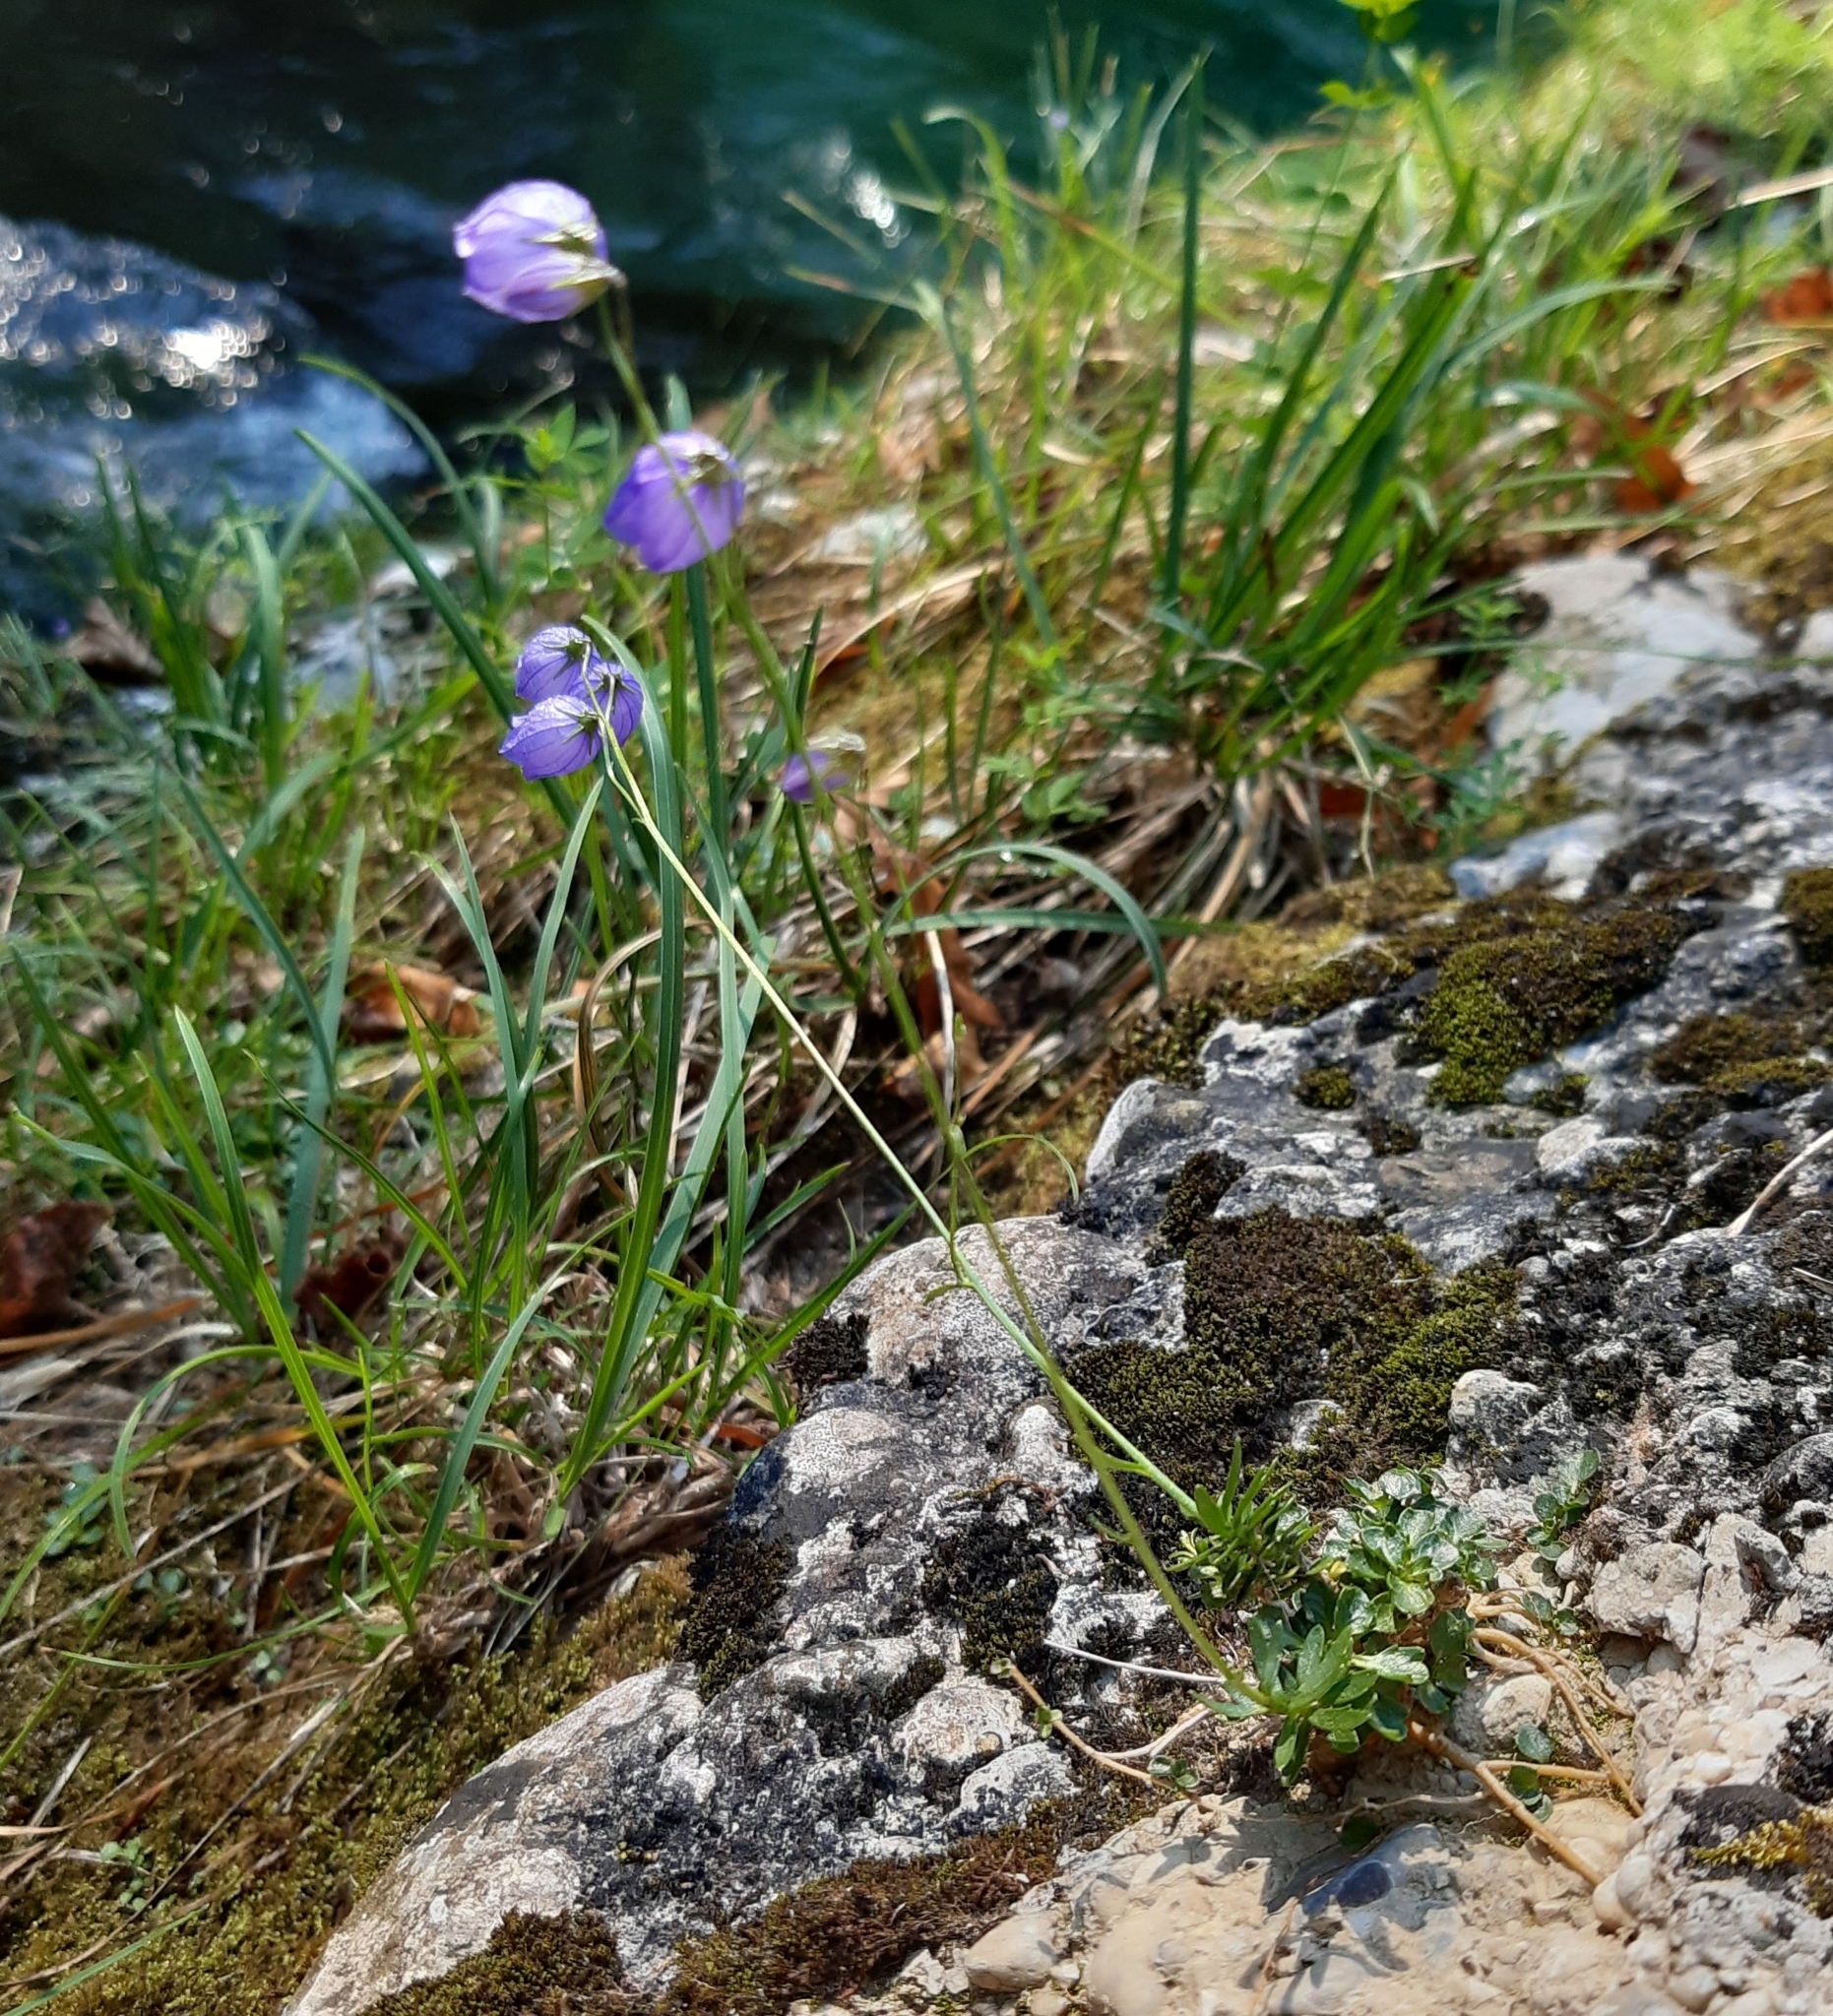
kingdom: Plantae
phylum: Tracheophyta
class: Magnoliopsida
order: Asterales
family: Campanulaceae
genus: Campanula
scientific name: Campanula cespitosa
